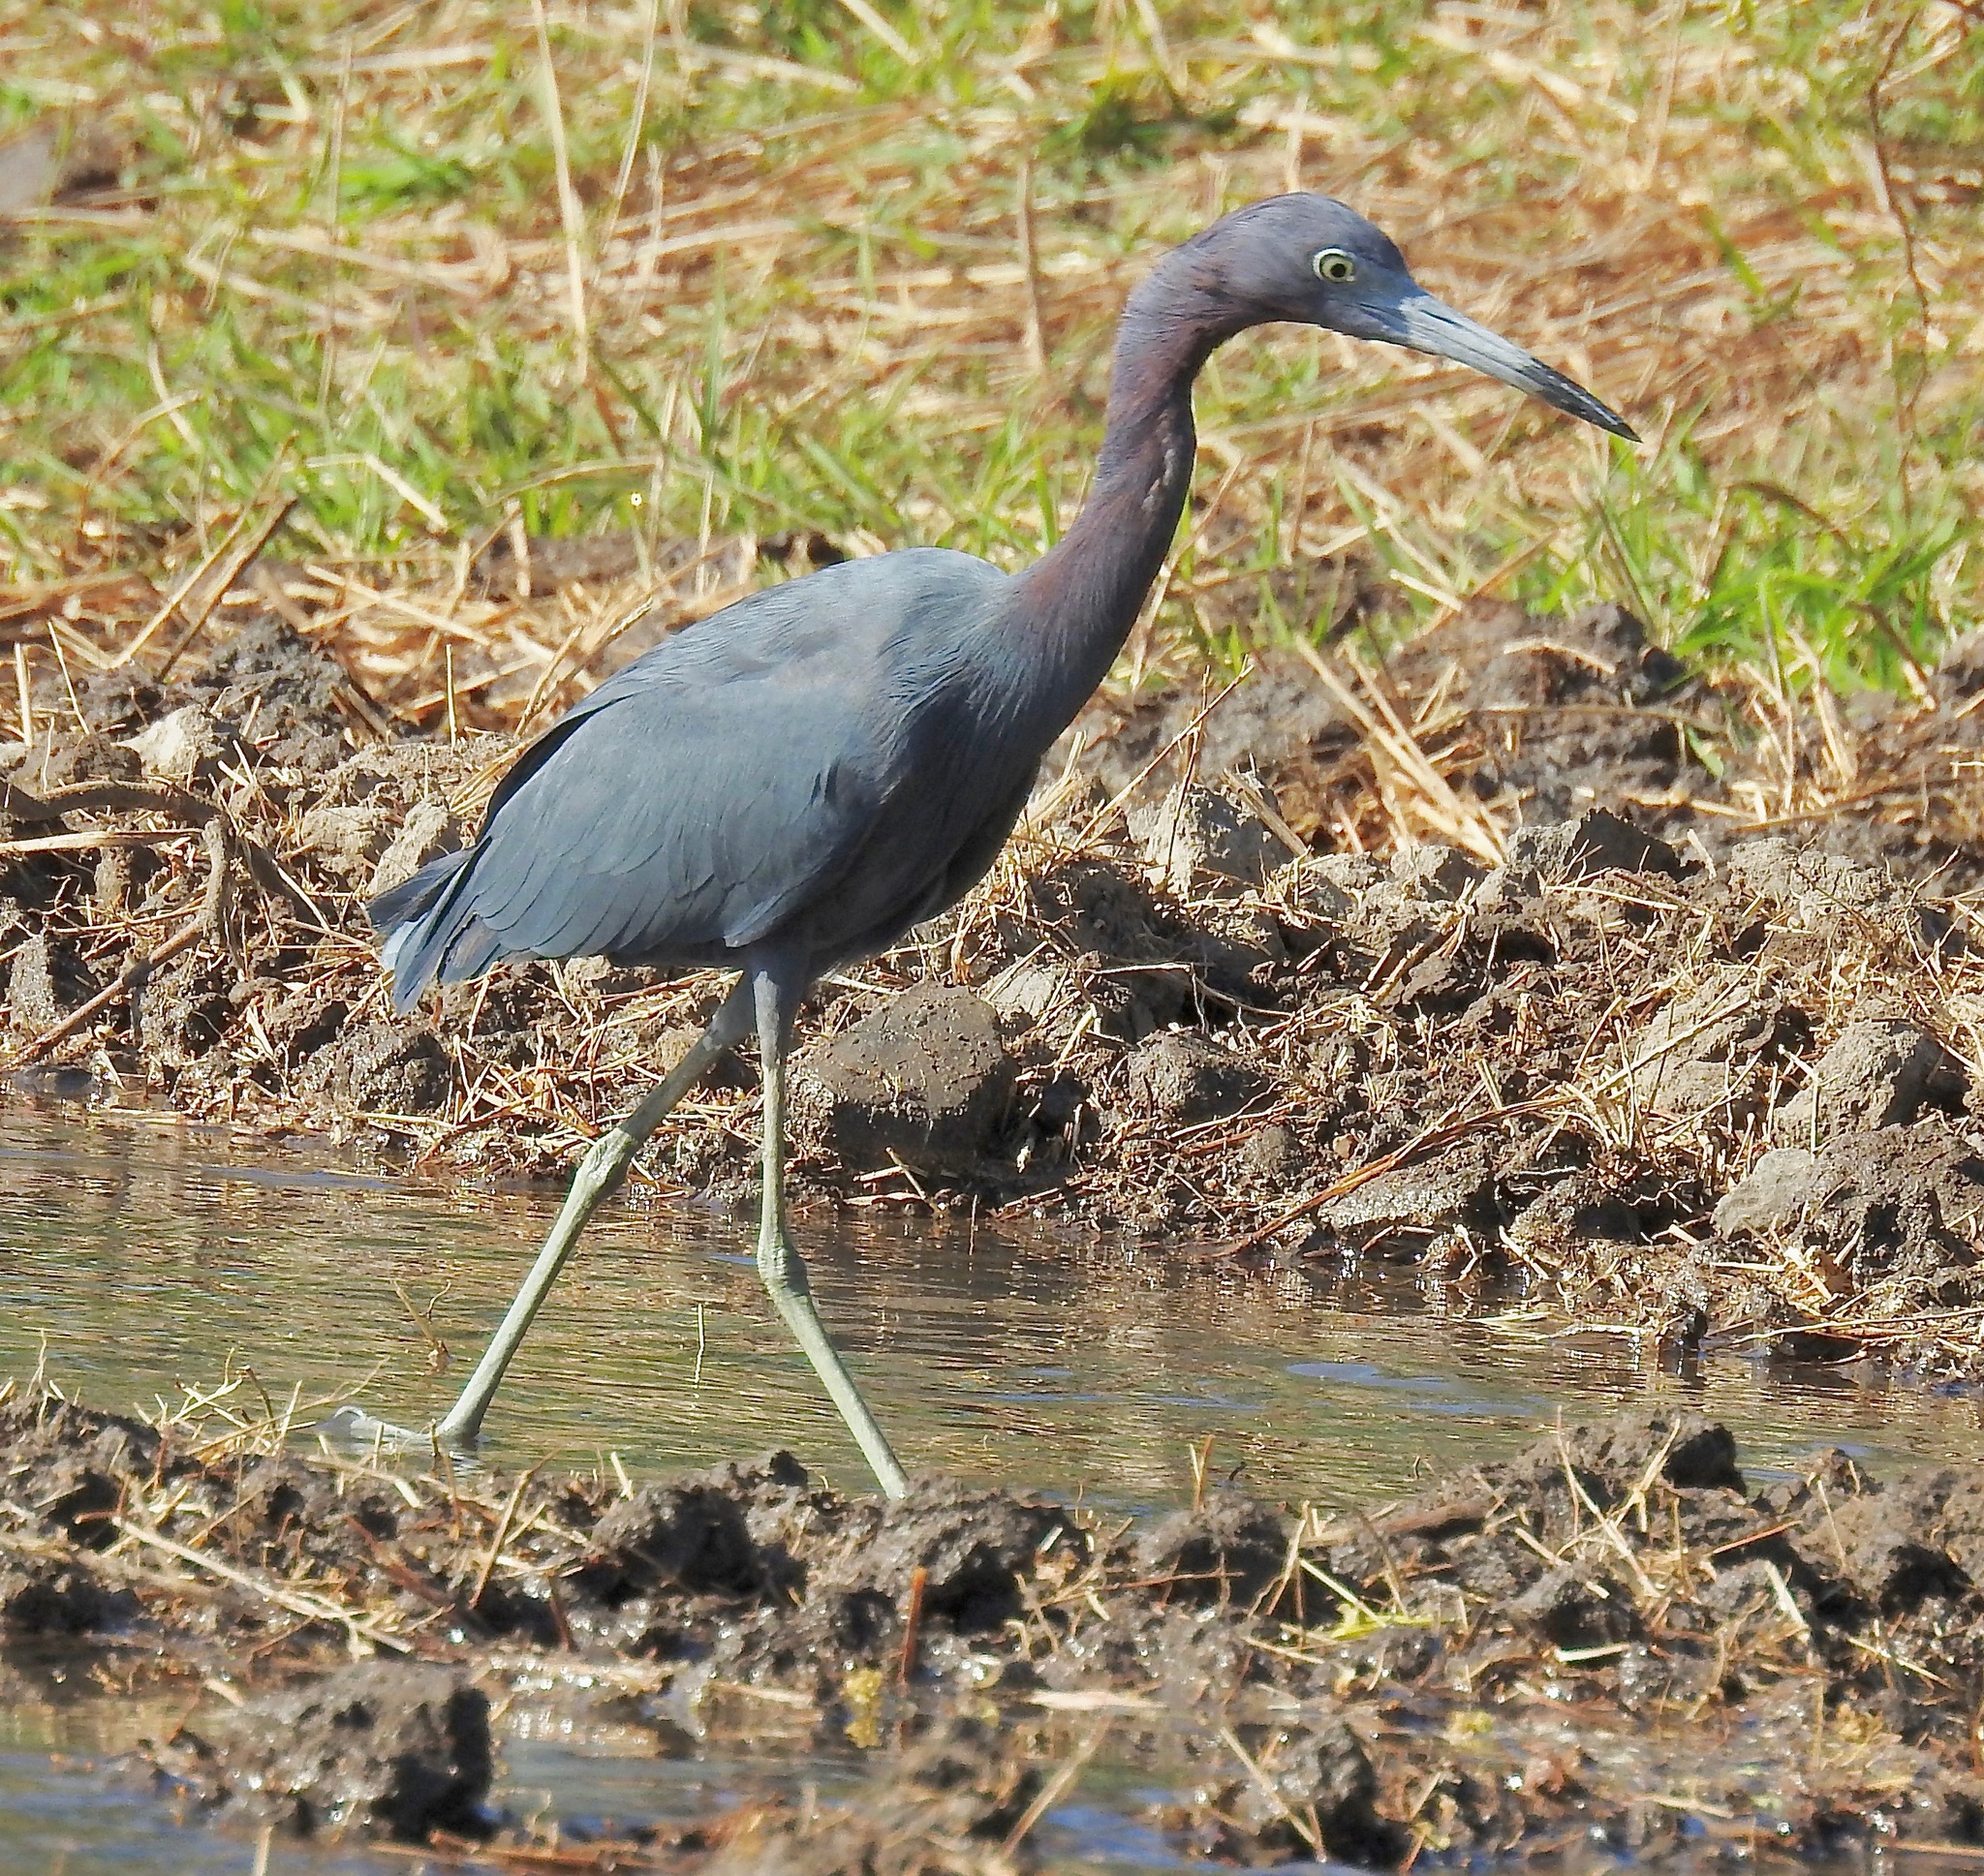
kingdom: Animalia
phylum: Chordata
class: Aves
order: Pelecaniformes
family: Ardeidae
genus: Egretta
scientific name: Egretta caerulea
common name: Little blue heron
